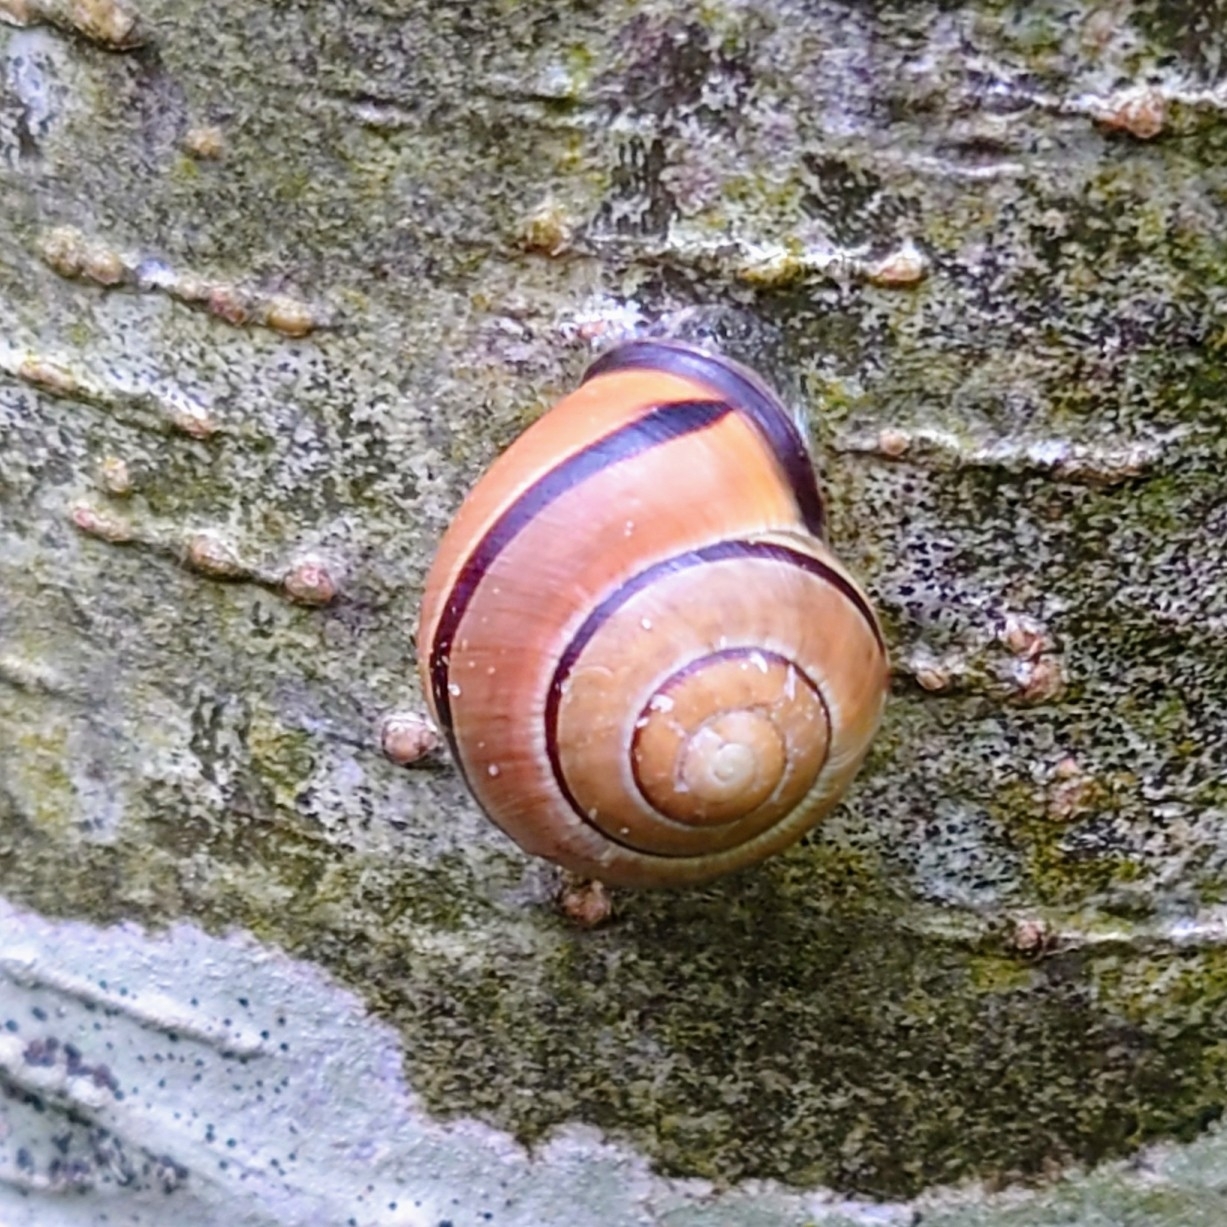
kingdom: Animalia
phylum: Mollusca
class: Gastropoda
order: Stylommatophora
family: Helicidae
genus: Cepaea
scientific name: Cepaea nemoralis
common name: Grovesnail
